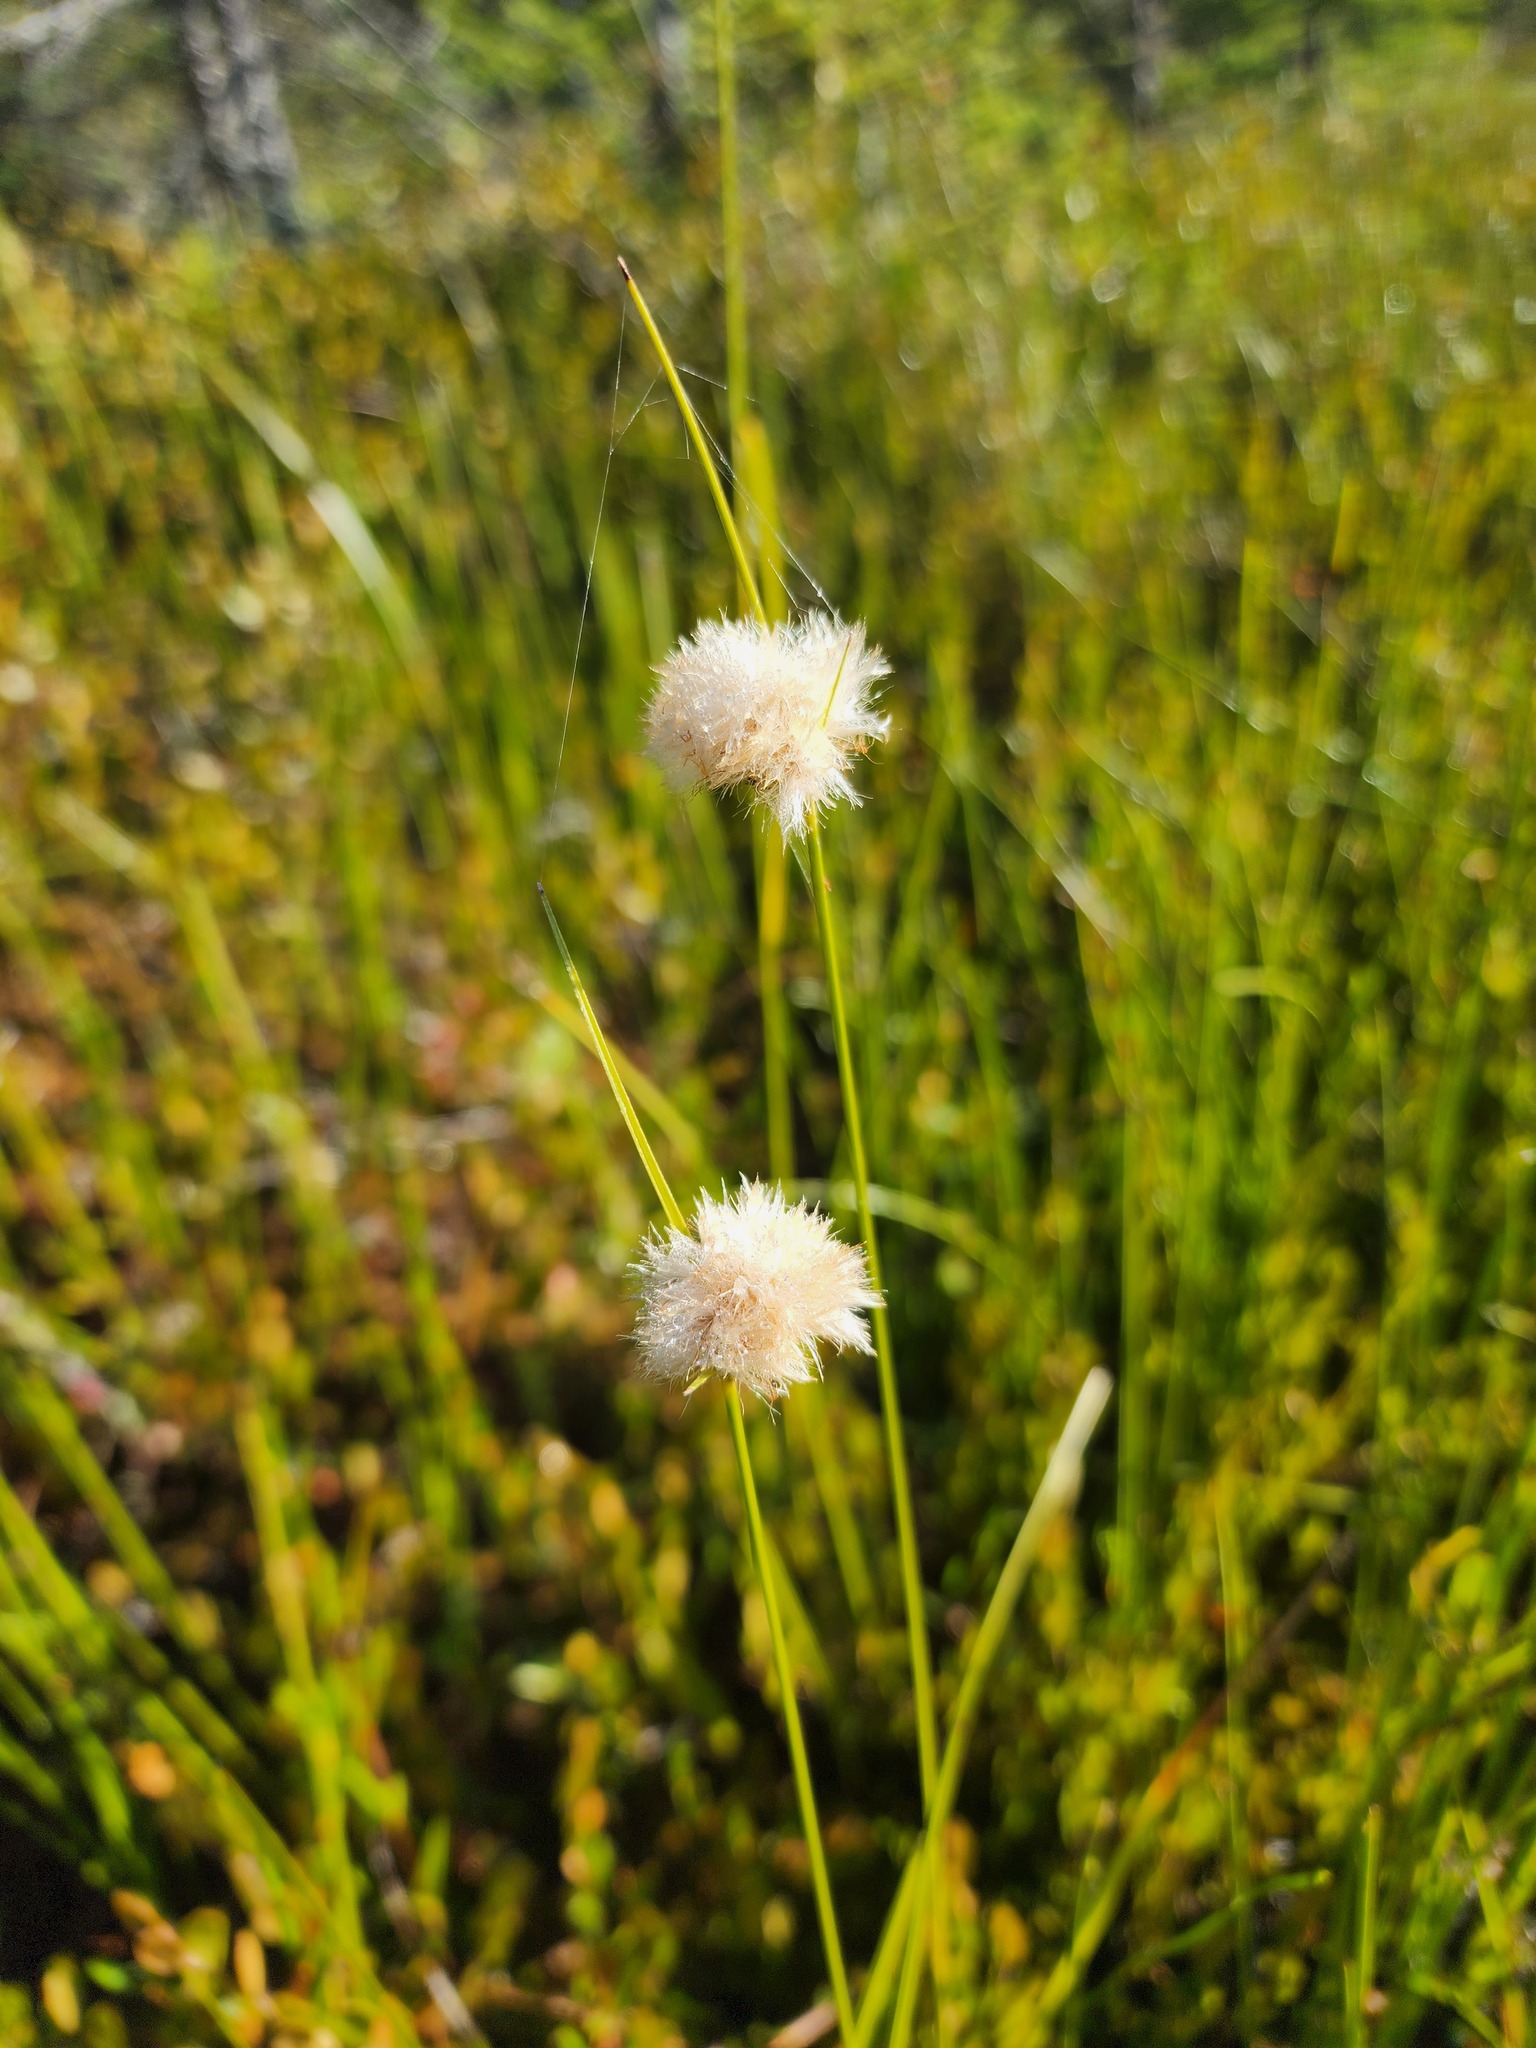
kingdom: Plantae
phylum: Tracheophyta
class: Liliopsida
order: Poales
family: Cyperaceae
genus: Eriophorum
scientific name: Eriophorum virginicum
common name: Tawny cottongrass
